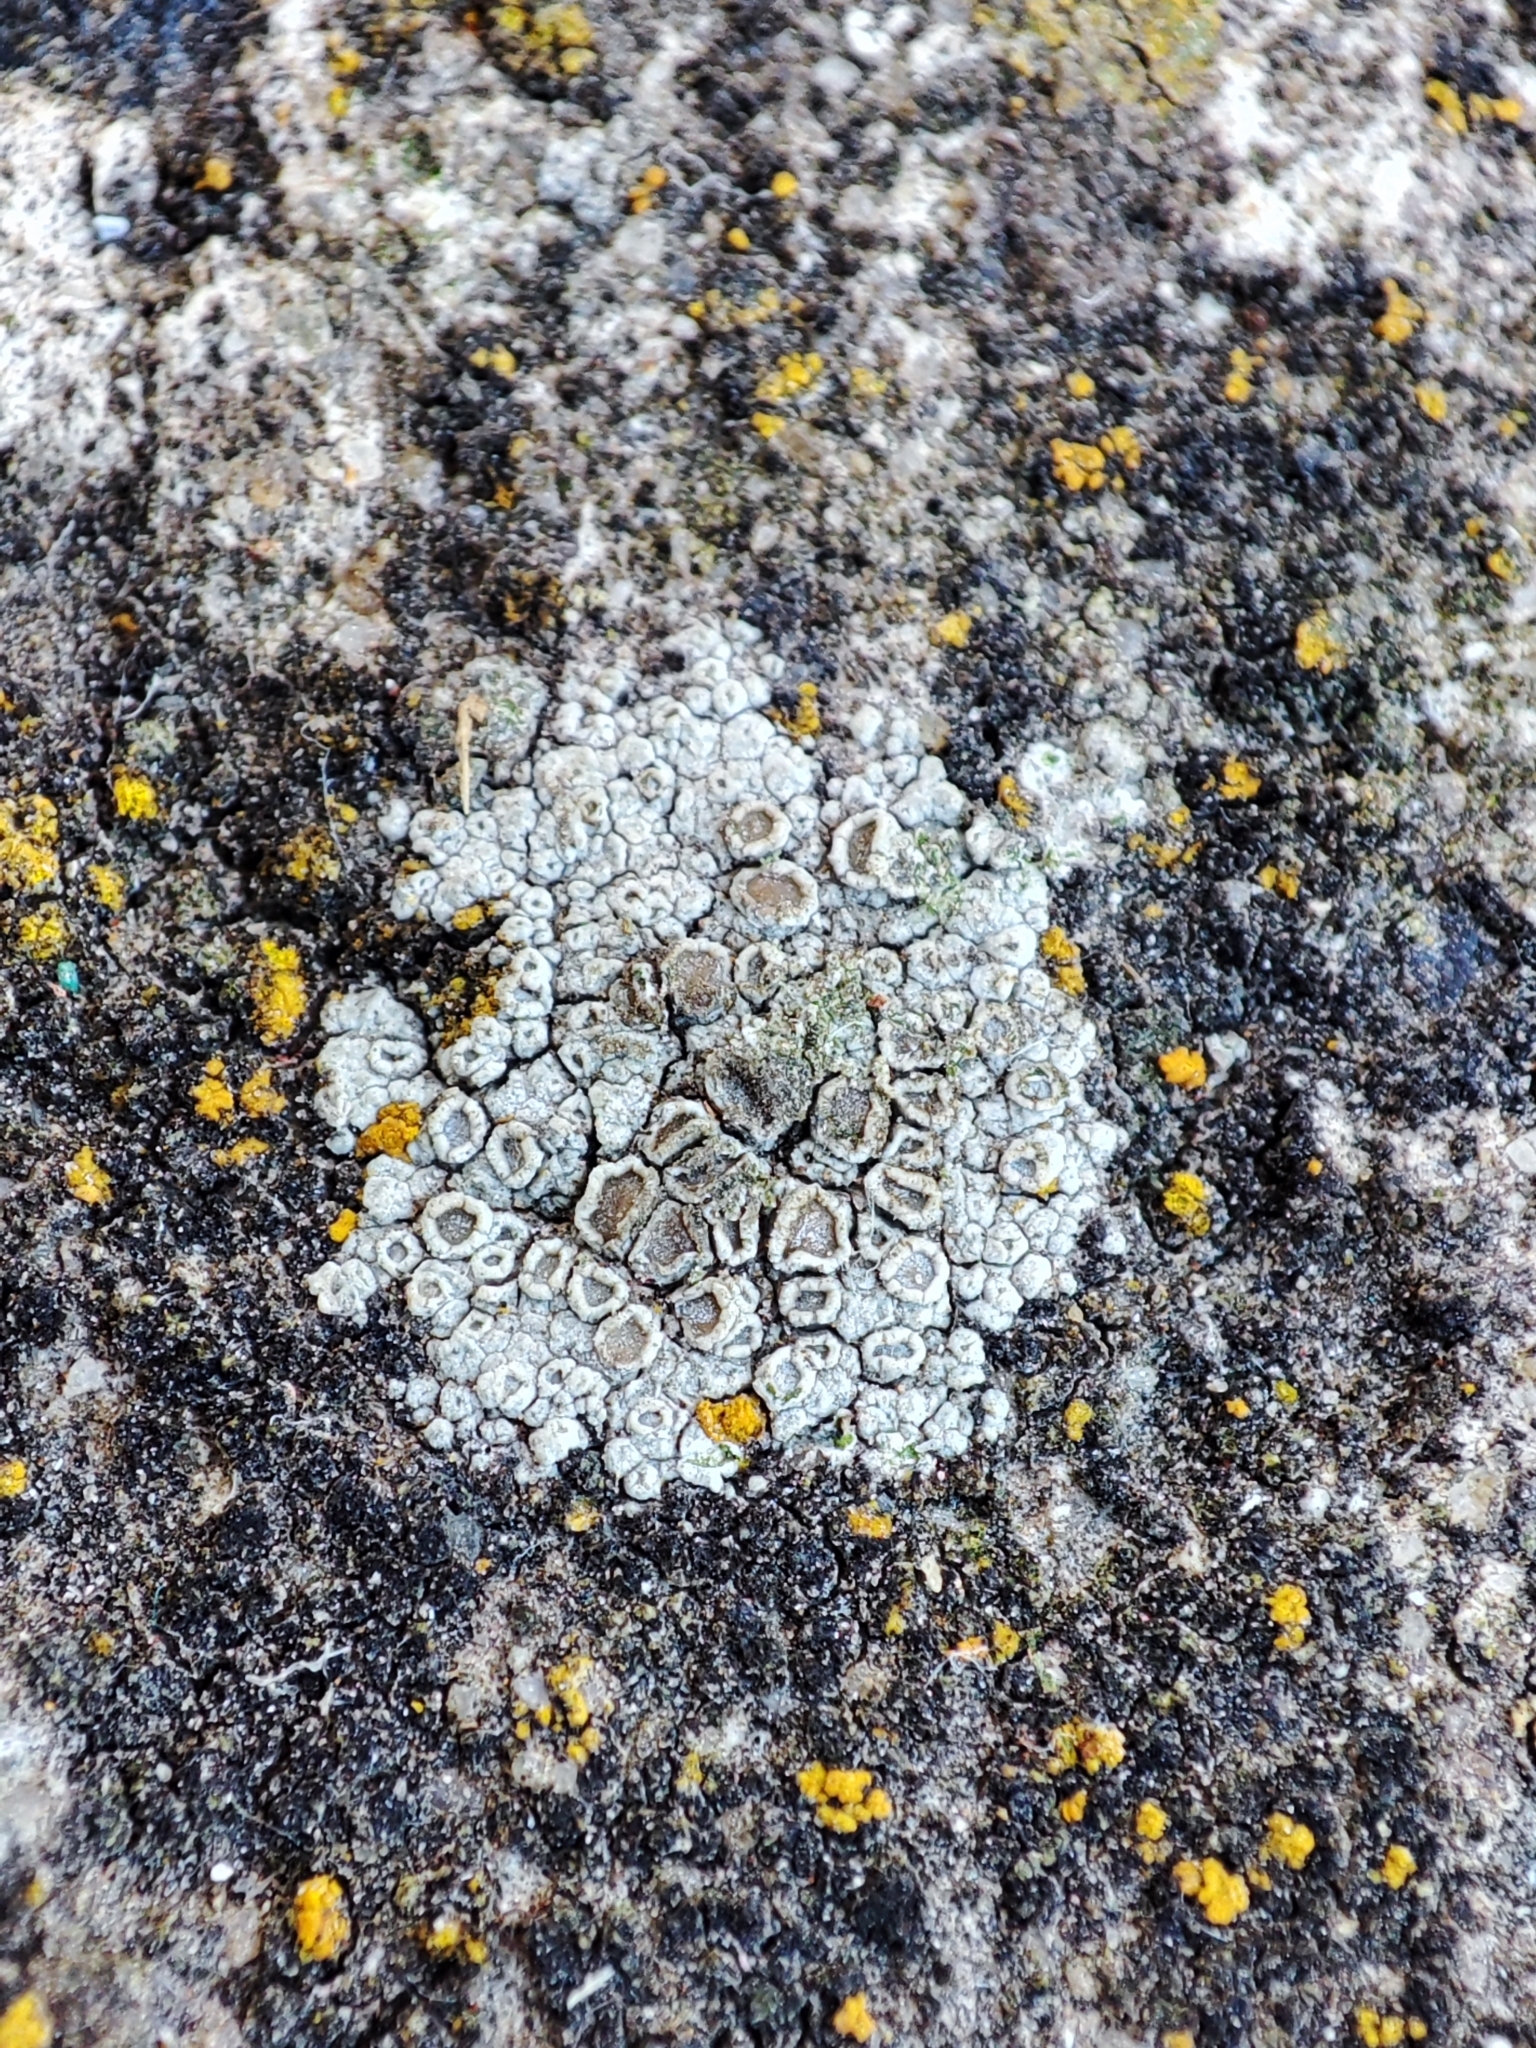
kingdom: Fungi
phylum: Ascomycota
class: Lecanoromycetes
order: Lecanorales
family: Lecanoraceae
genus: Polyozosia
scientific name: Polyozosia albescens
